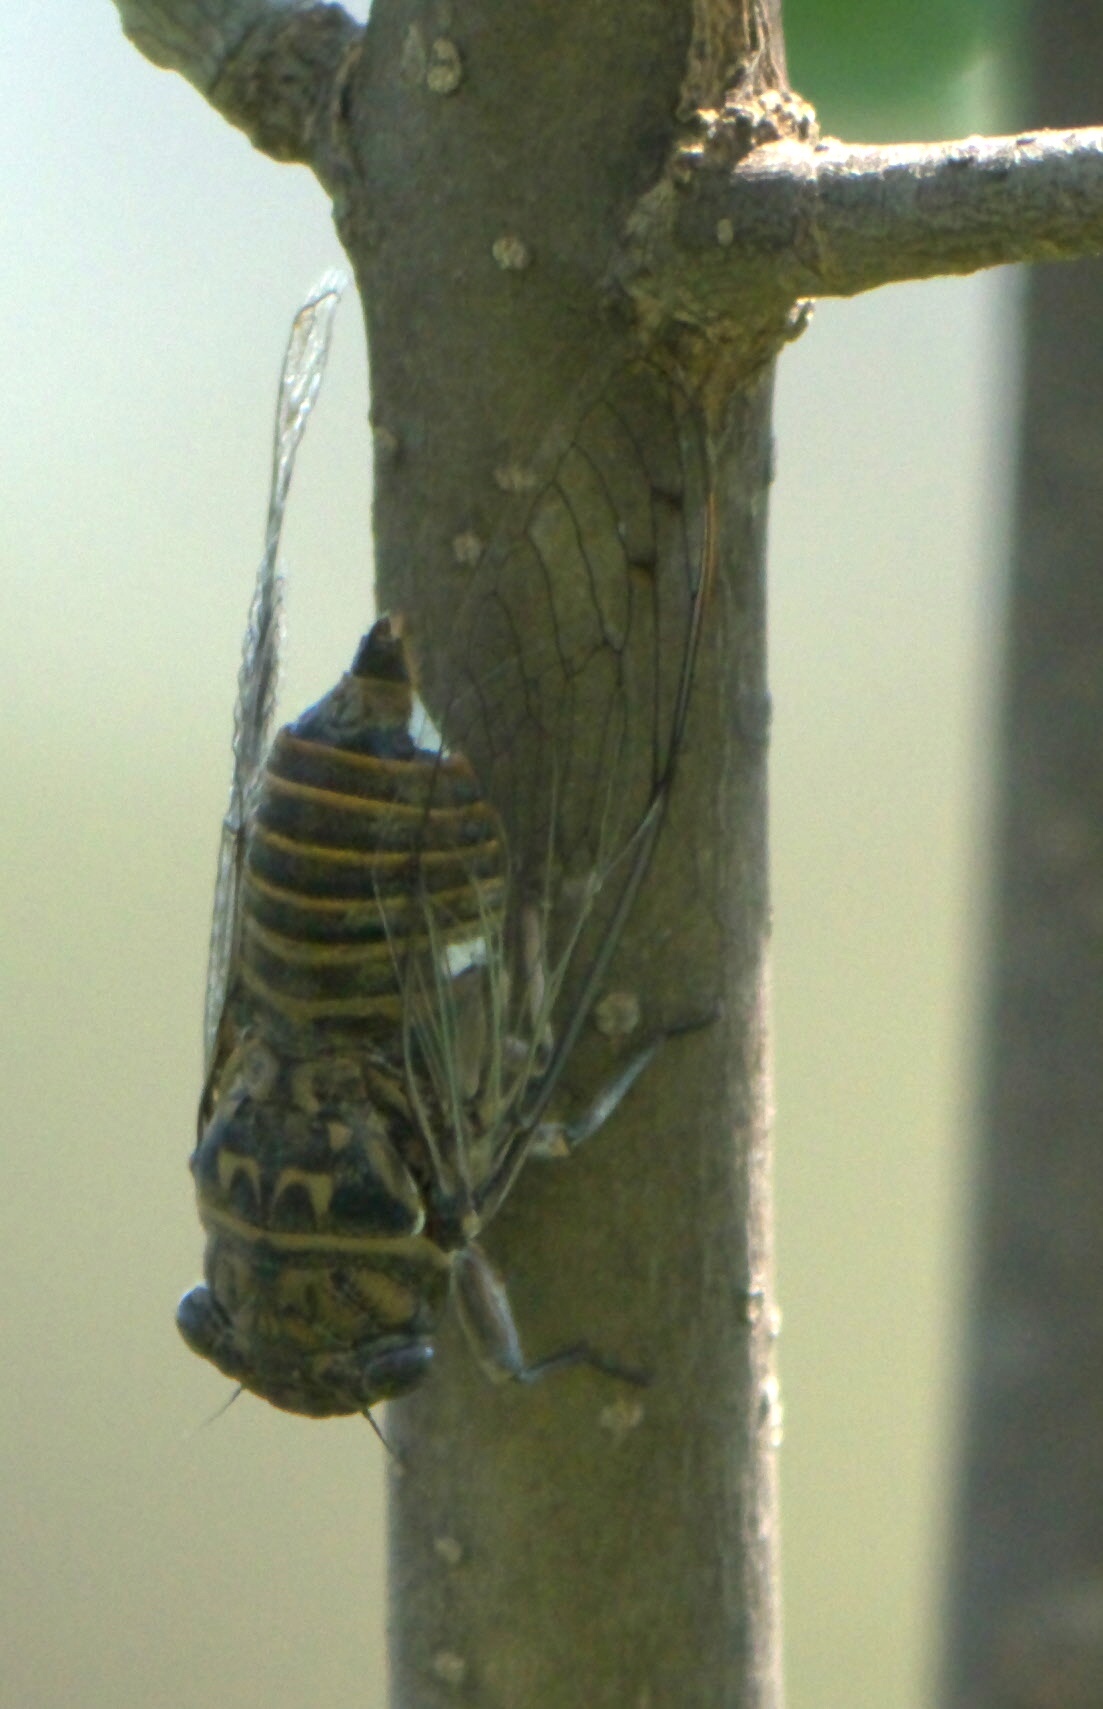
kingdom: Animalia
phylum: Arthropoda
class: Insecta
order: Hemiptera
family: Cicadidae
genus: Hadoa
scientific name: Hadoa texana
